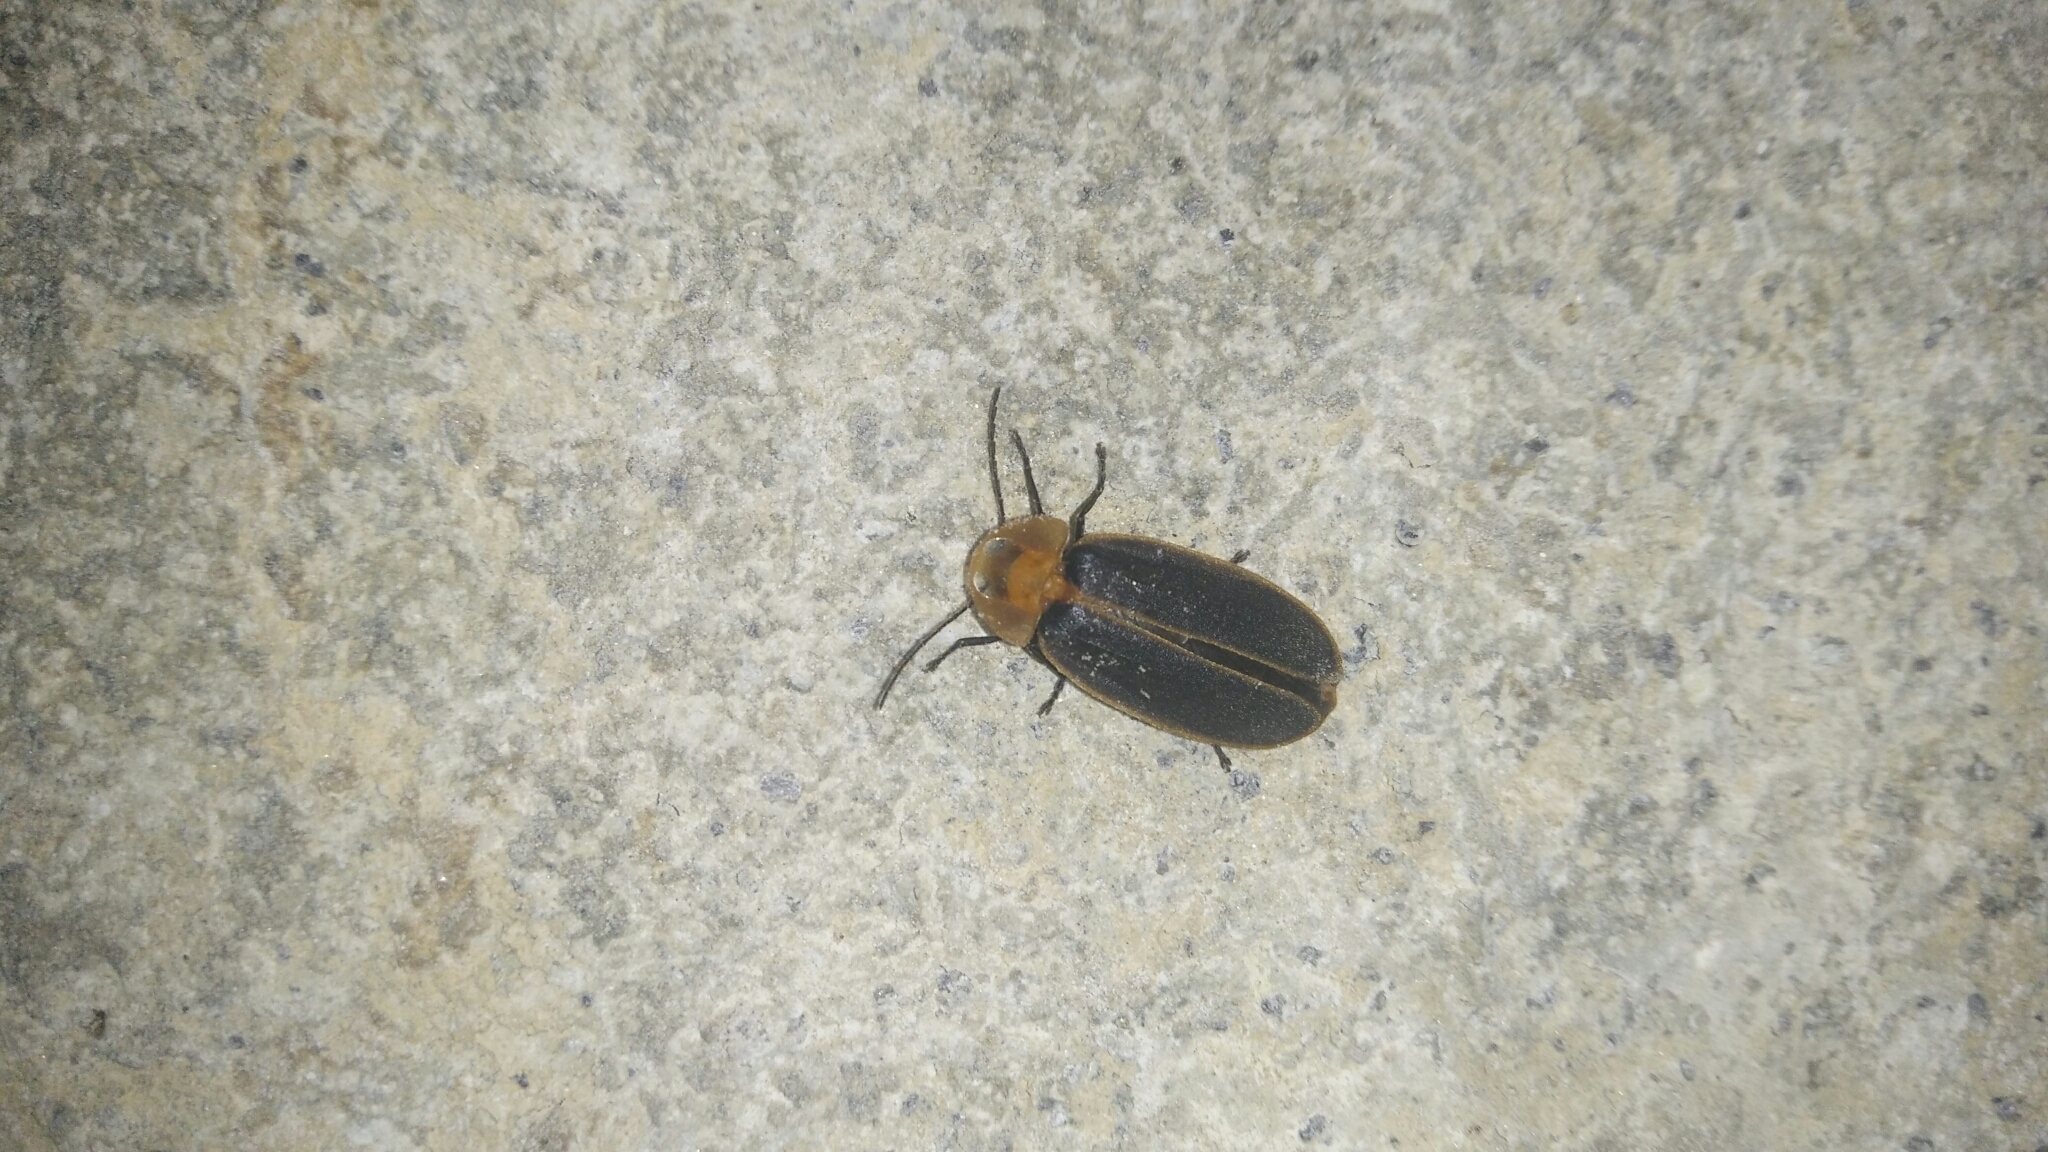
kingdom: Animalia
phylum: Arthropoda
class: Insecta
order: Coleoptera
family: Lampyridae
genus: Pyrocoelia
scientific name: Pyrocoelia praetexta
